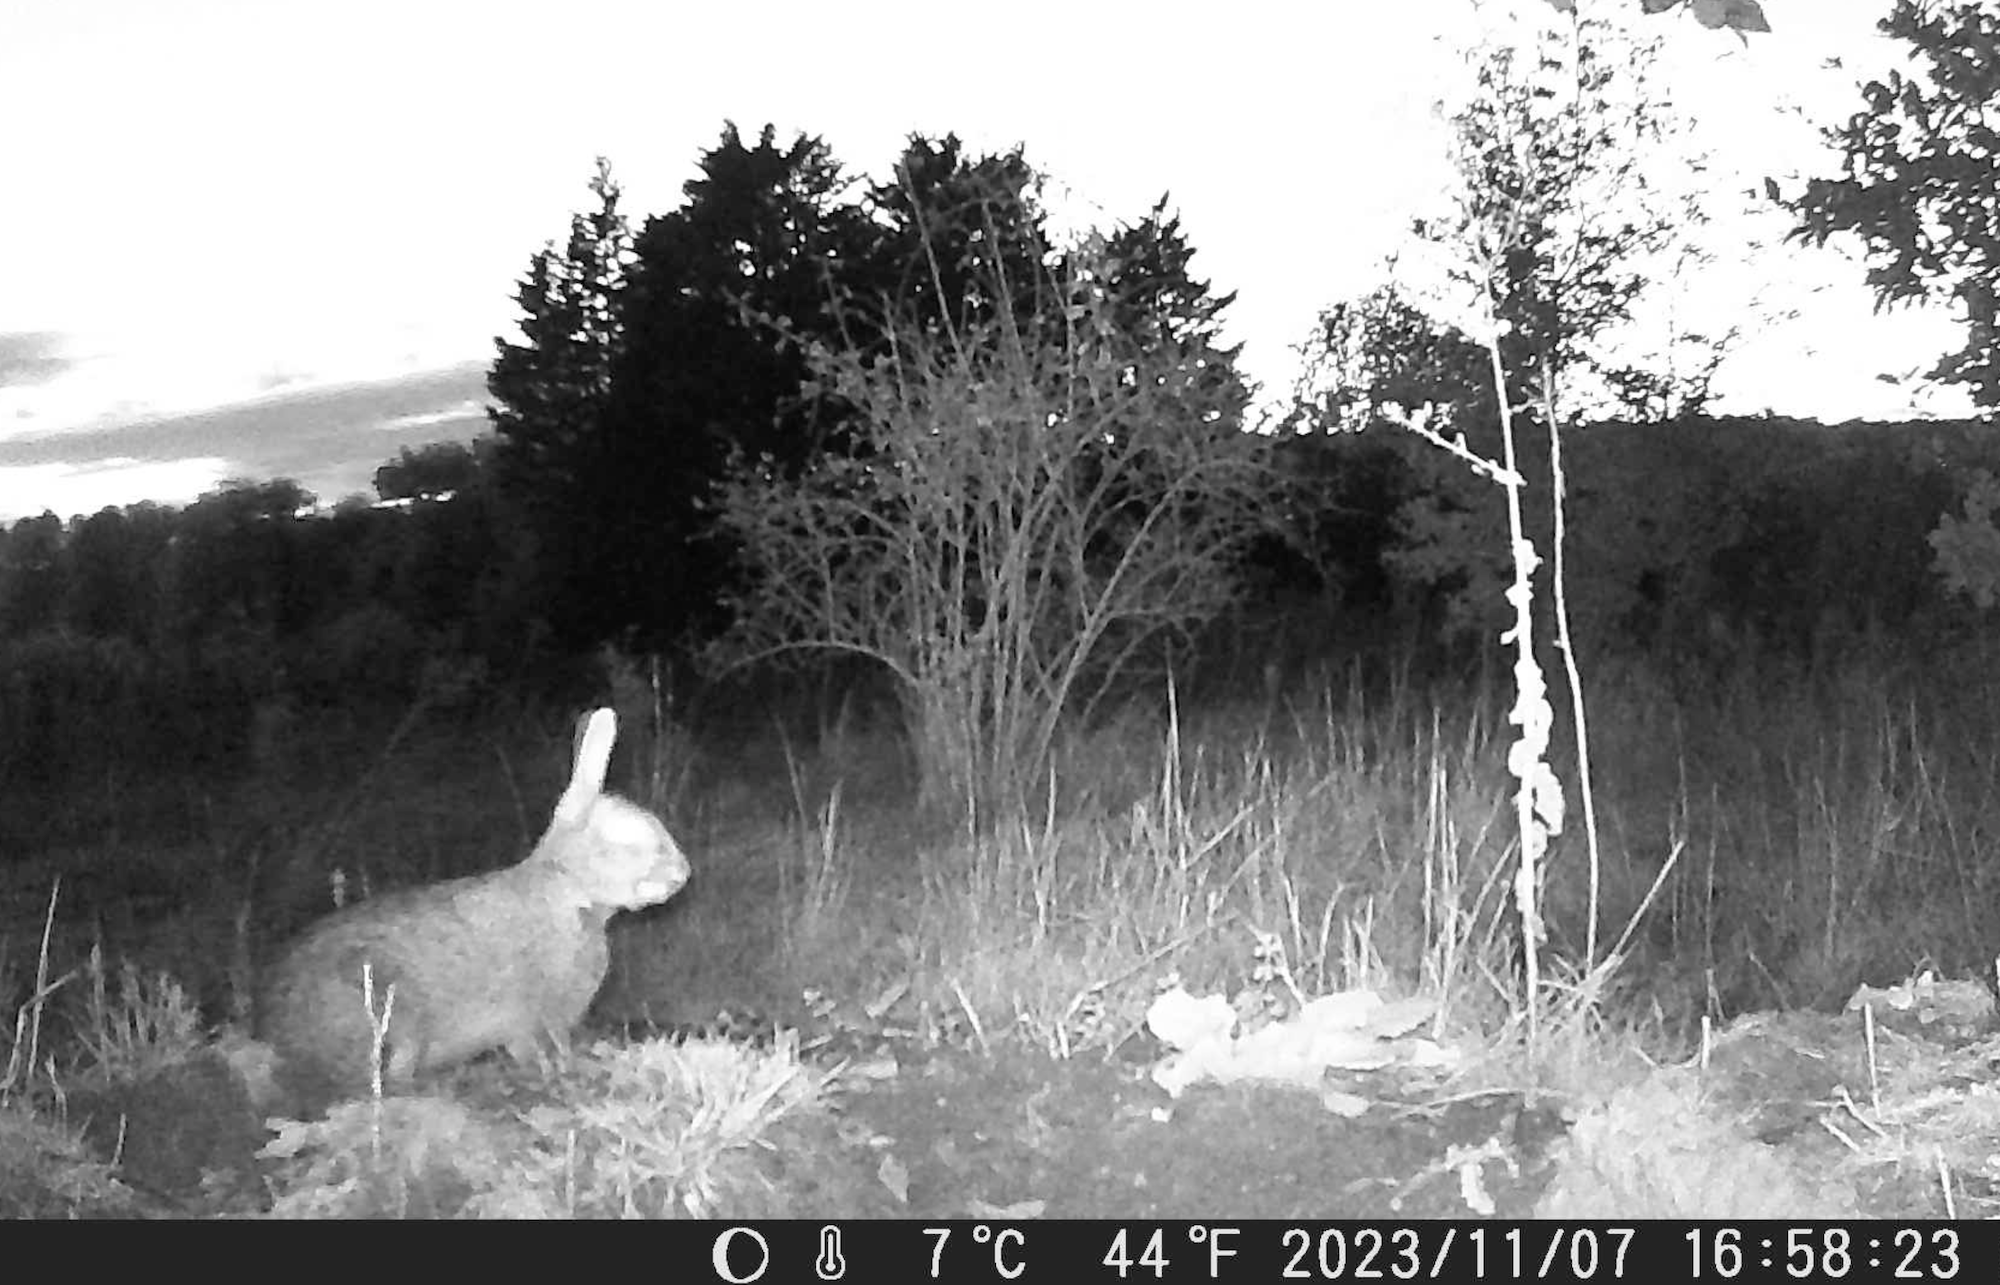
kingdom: Animalia
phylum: Chordata
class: Mammalia
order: Lagomorpha
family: Leporidae
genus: Oryctolagus
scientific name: Oryctolagus cuniculus
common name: European rabbit
